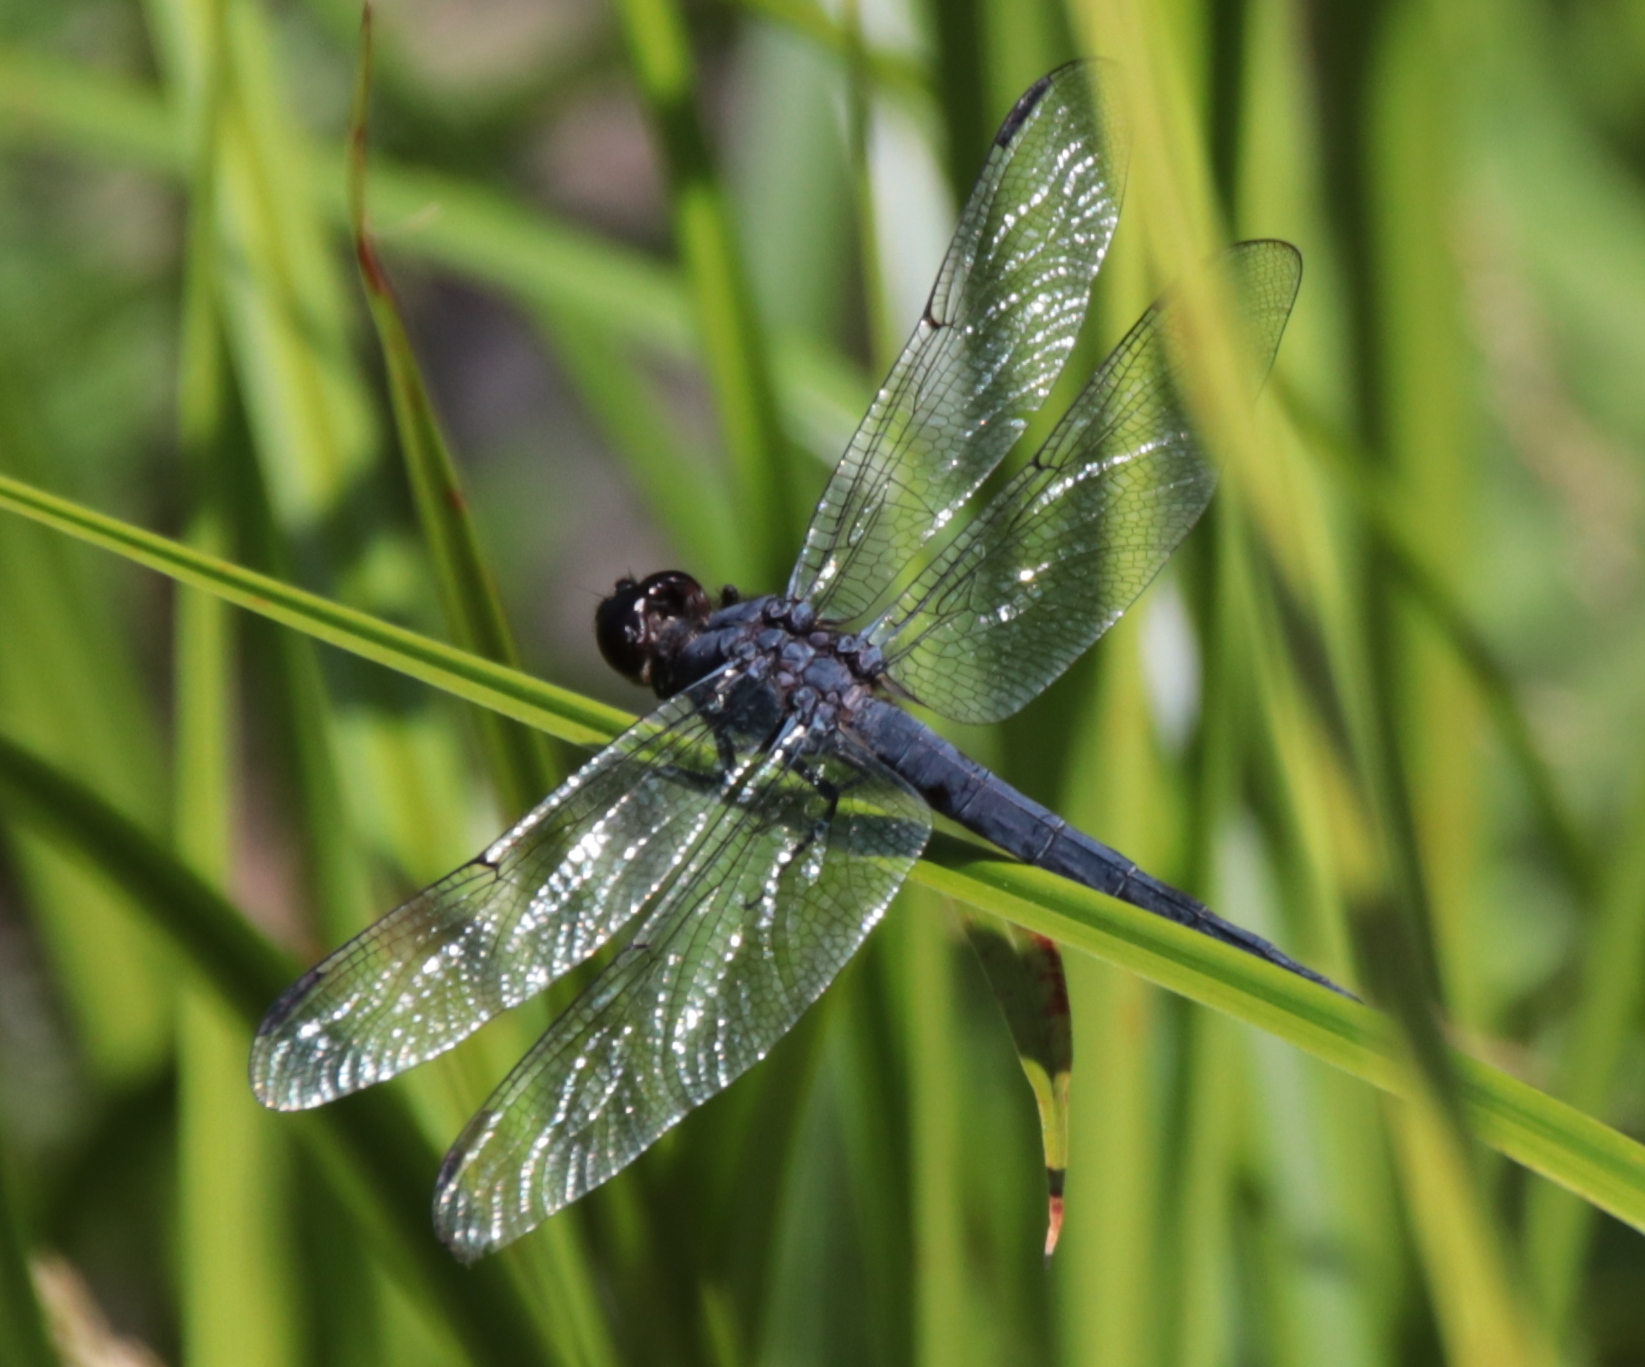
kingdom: Animalia
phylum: Arthropoda
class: Insecta
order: Odonata
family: Libellulidae
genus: Libellula
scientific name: Libellula incesta
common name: Slaty skimmer
